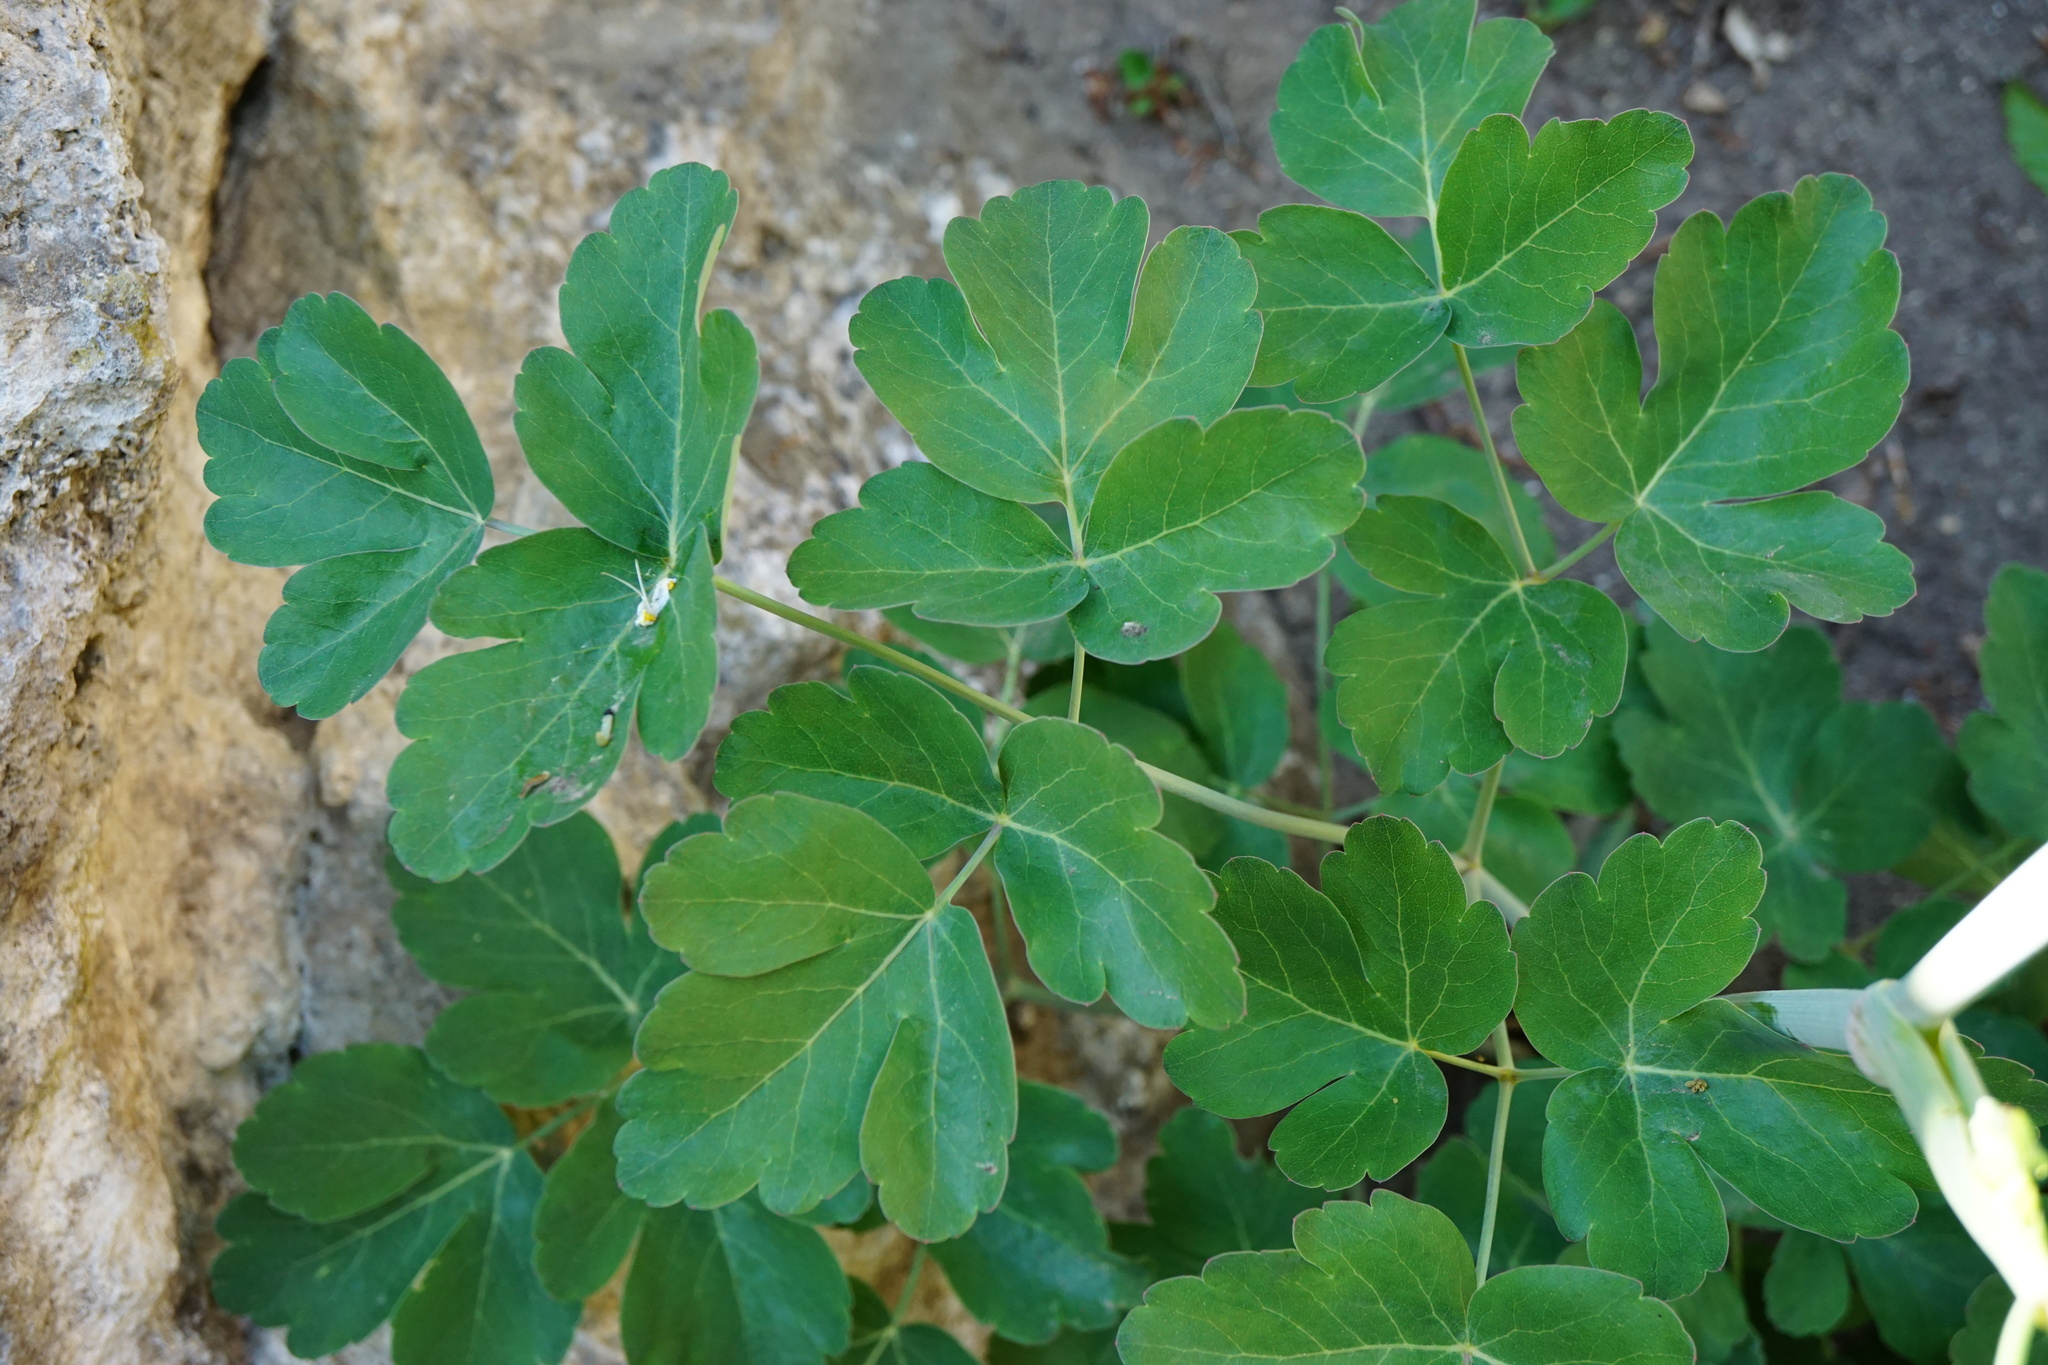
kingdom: Plantae
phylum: Tracheophyta
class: Magnoliopsida
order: Apiales
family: Apiaceae
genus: Laser
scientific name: Laser trilobum
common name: Laser
